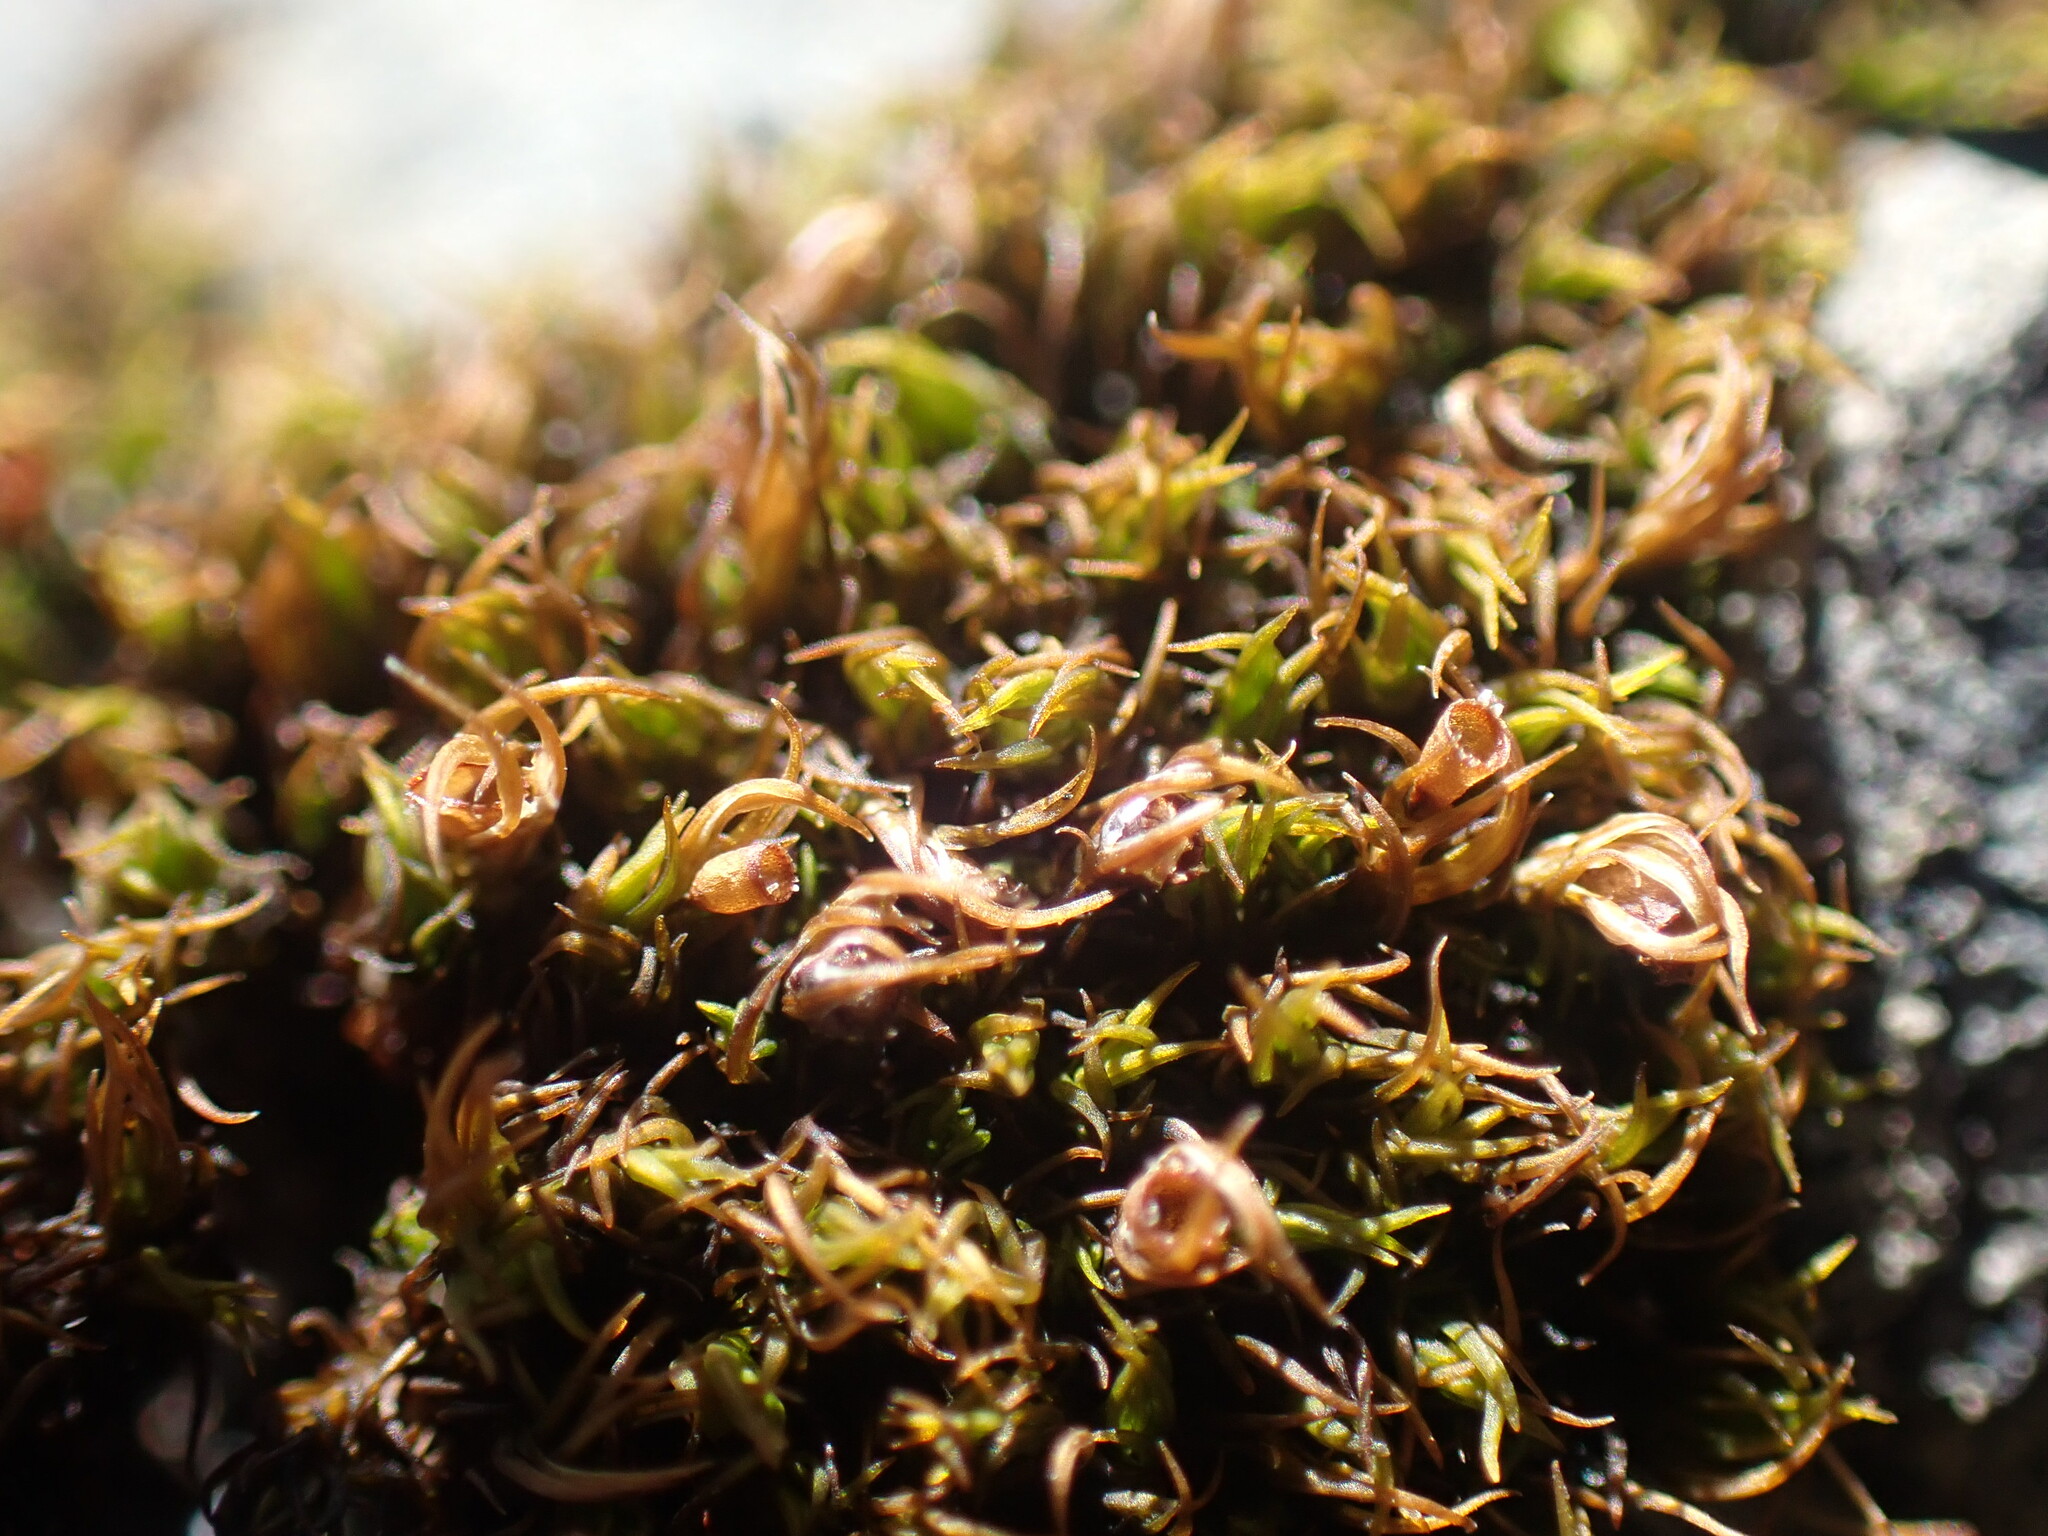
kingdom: Plantae
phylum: Bryophyta
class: Bryopsida
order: Grimmiales
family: Grimmiaceae
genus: Schistidium
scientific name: Schistidium maritimum
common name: Seaside bloom moss
